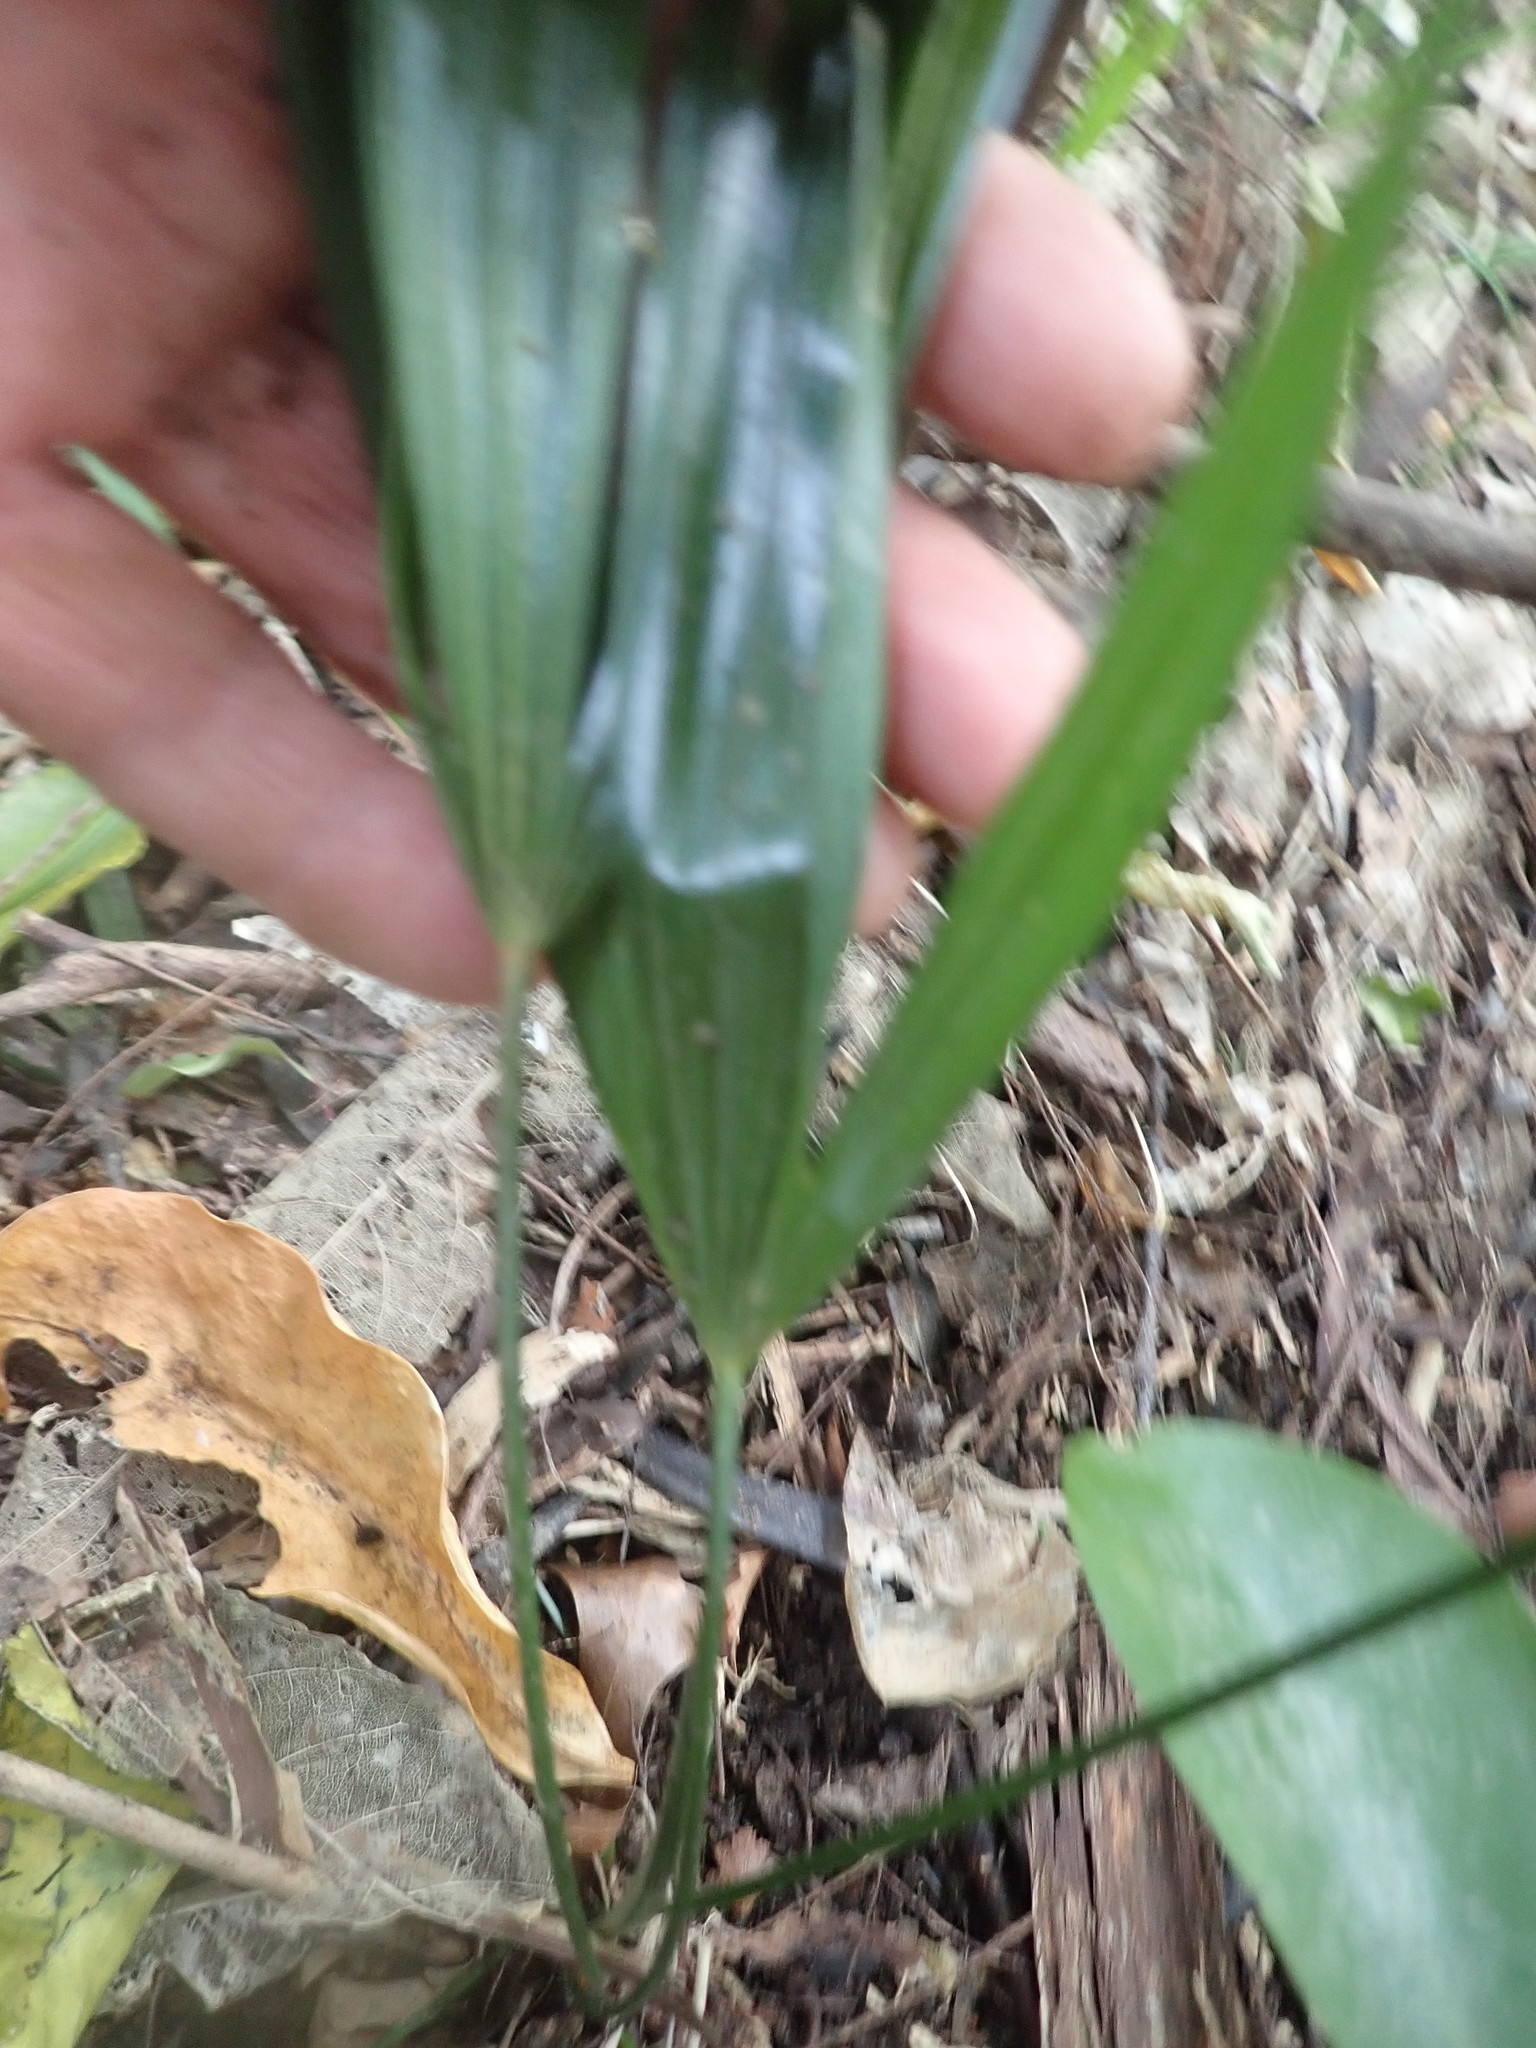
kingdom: Plantae
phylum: Tracheophyta
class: Liliopsida
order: Arecales
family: Arecaceae
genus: Trachycarpus
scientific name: Trachycarpus fortunei
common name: Chusan palm
